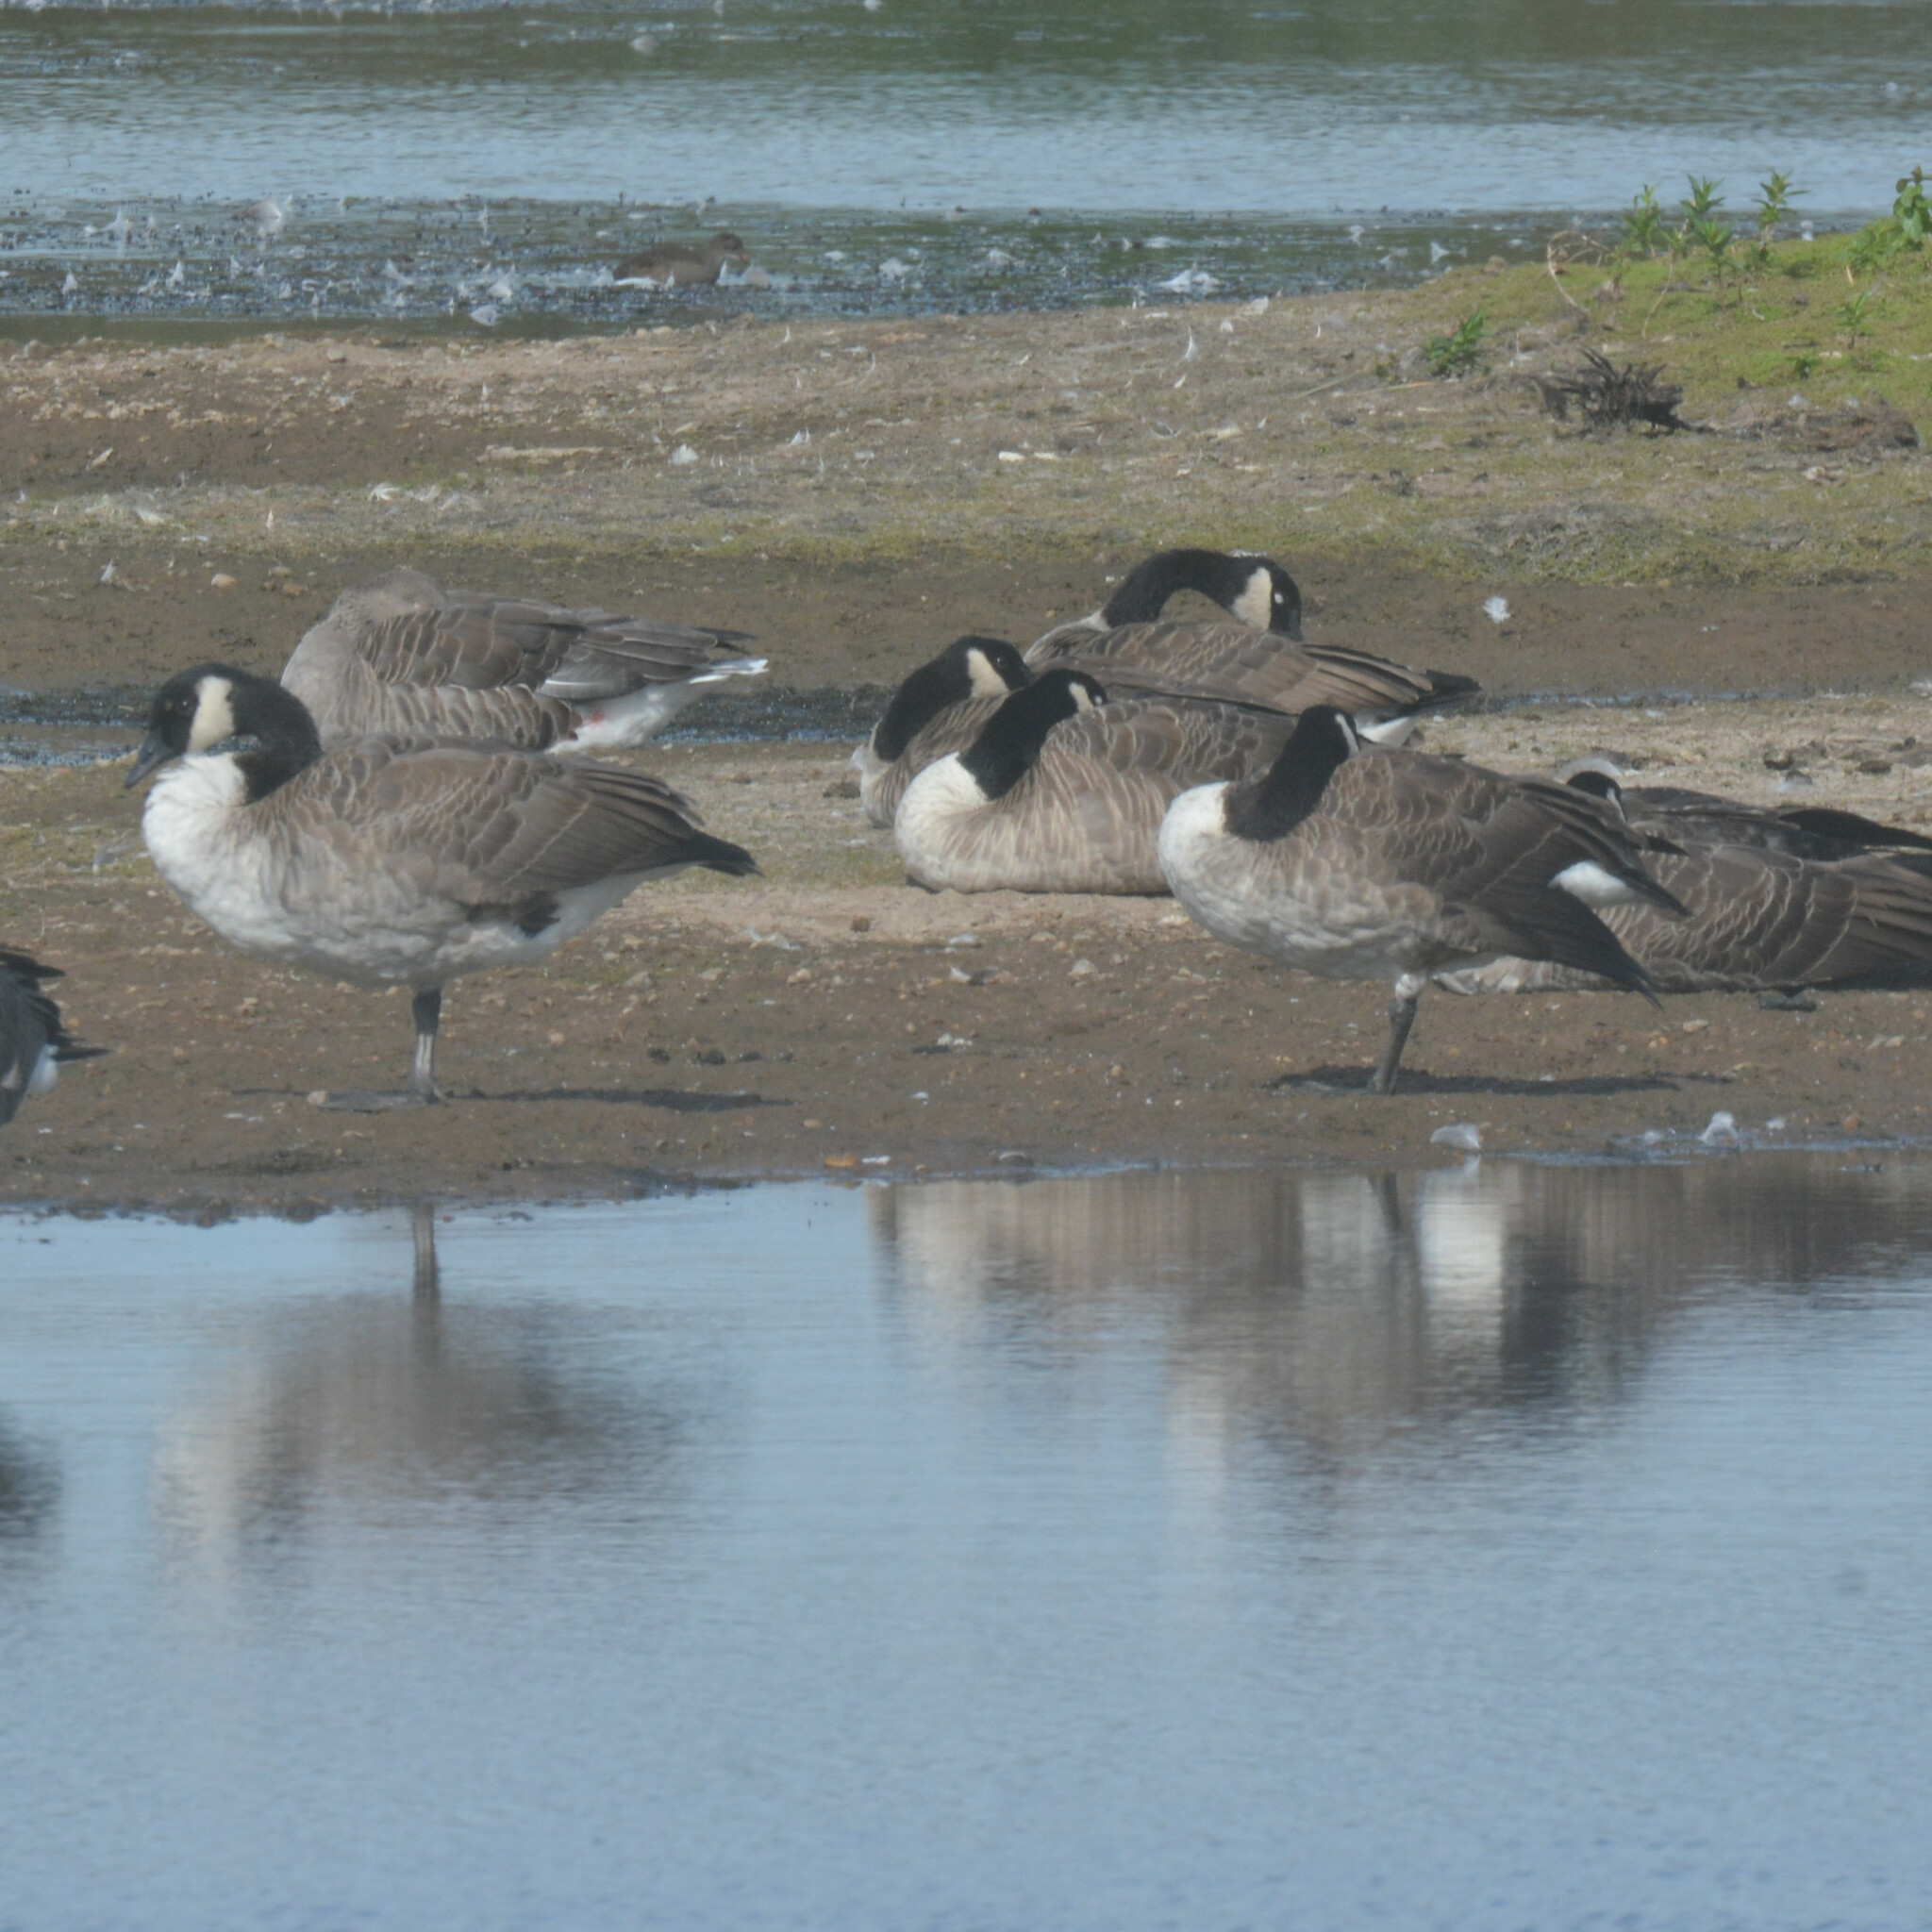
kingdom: Animalia
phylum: Chordata
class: Aves
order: Anseriformes
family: Anatidae
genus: Branta
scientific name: Branta canadensis
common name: Canada goose
